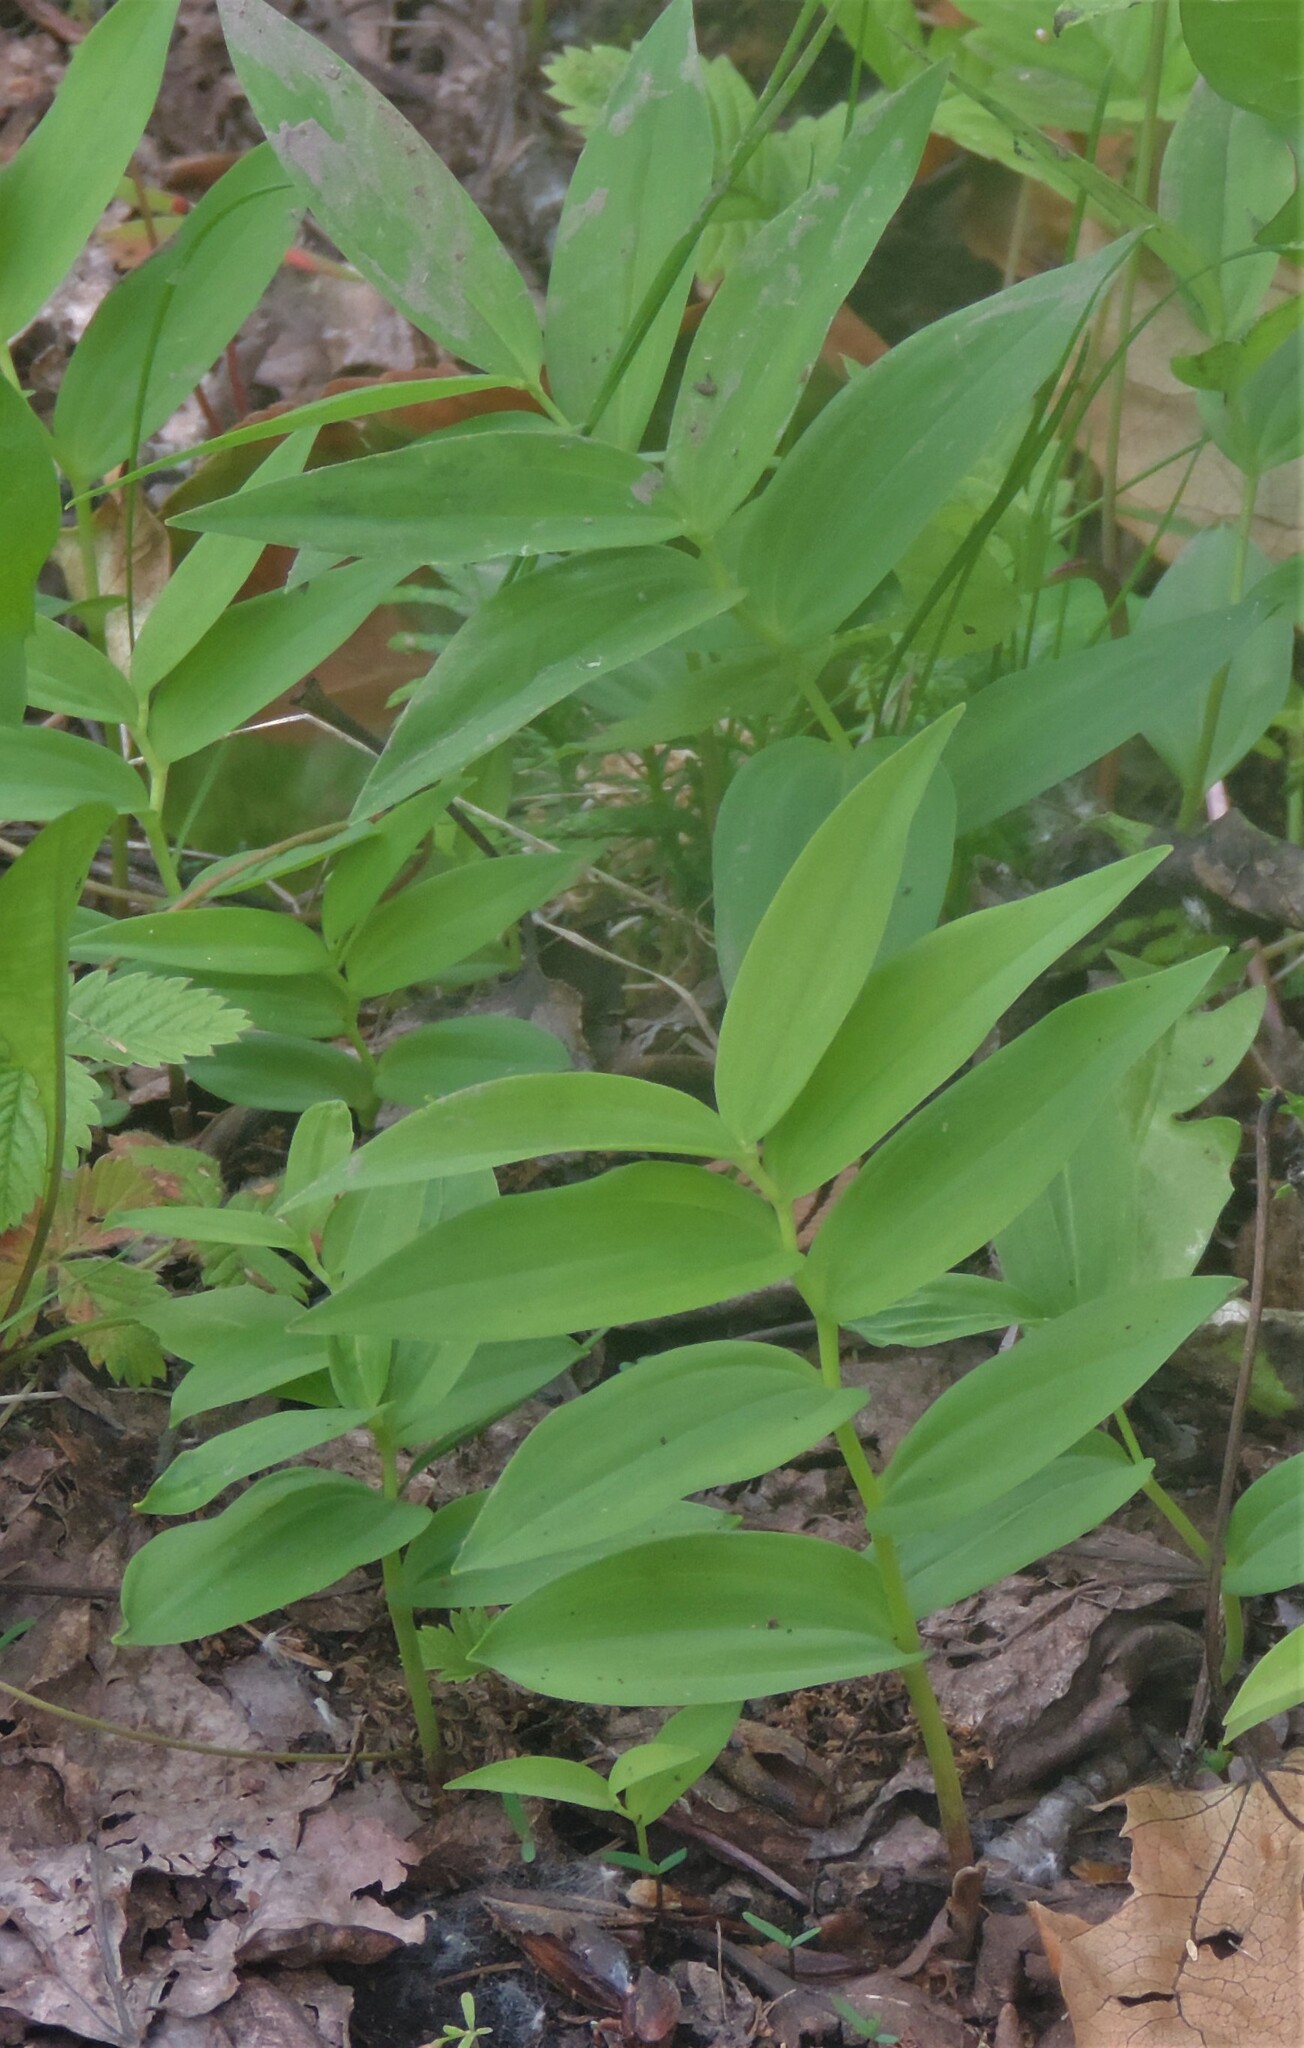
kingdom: Plantae
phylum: Tracheophyta
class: Liliopsida
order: Asparagales
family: Asparagaceae
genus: Maianthemum
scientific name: Maianthemum stellatum
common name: Little false solomon's seal
